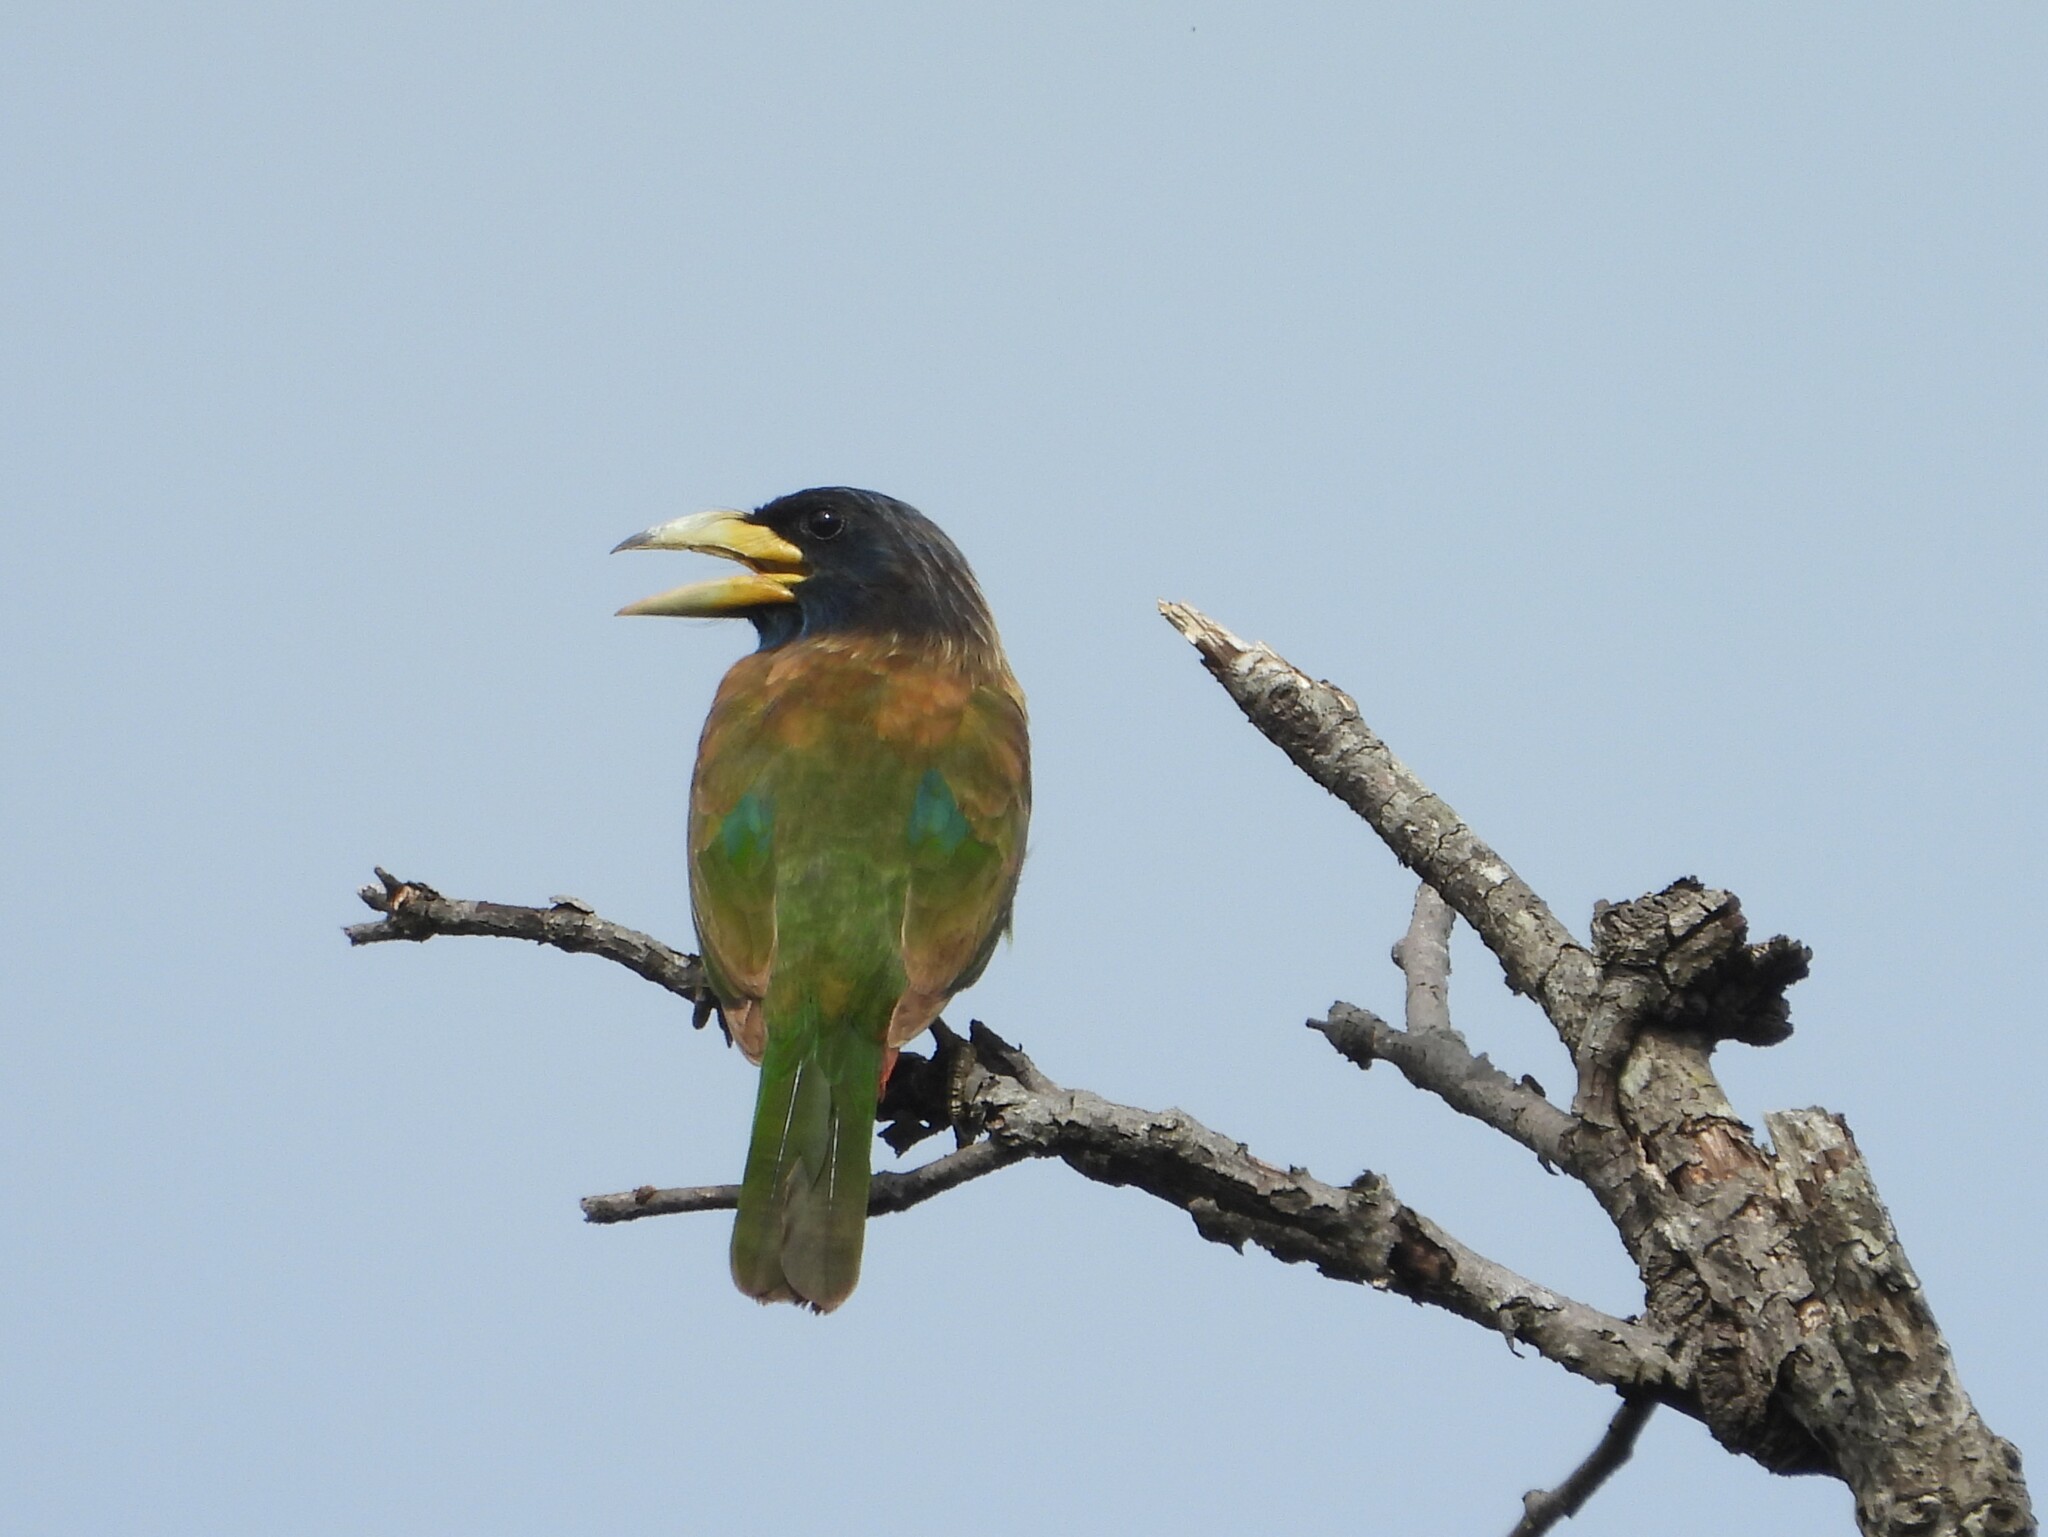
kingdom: Animalia
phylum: Chordata
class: Aves
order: Piciformes
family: Megalaimidae
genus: Psilopogon
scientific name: Psilopogon virens
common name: Great barbet
